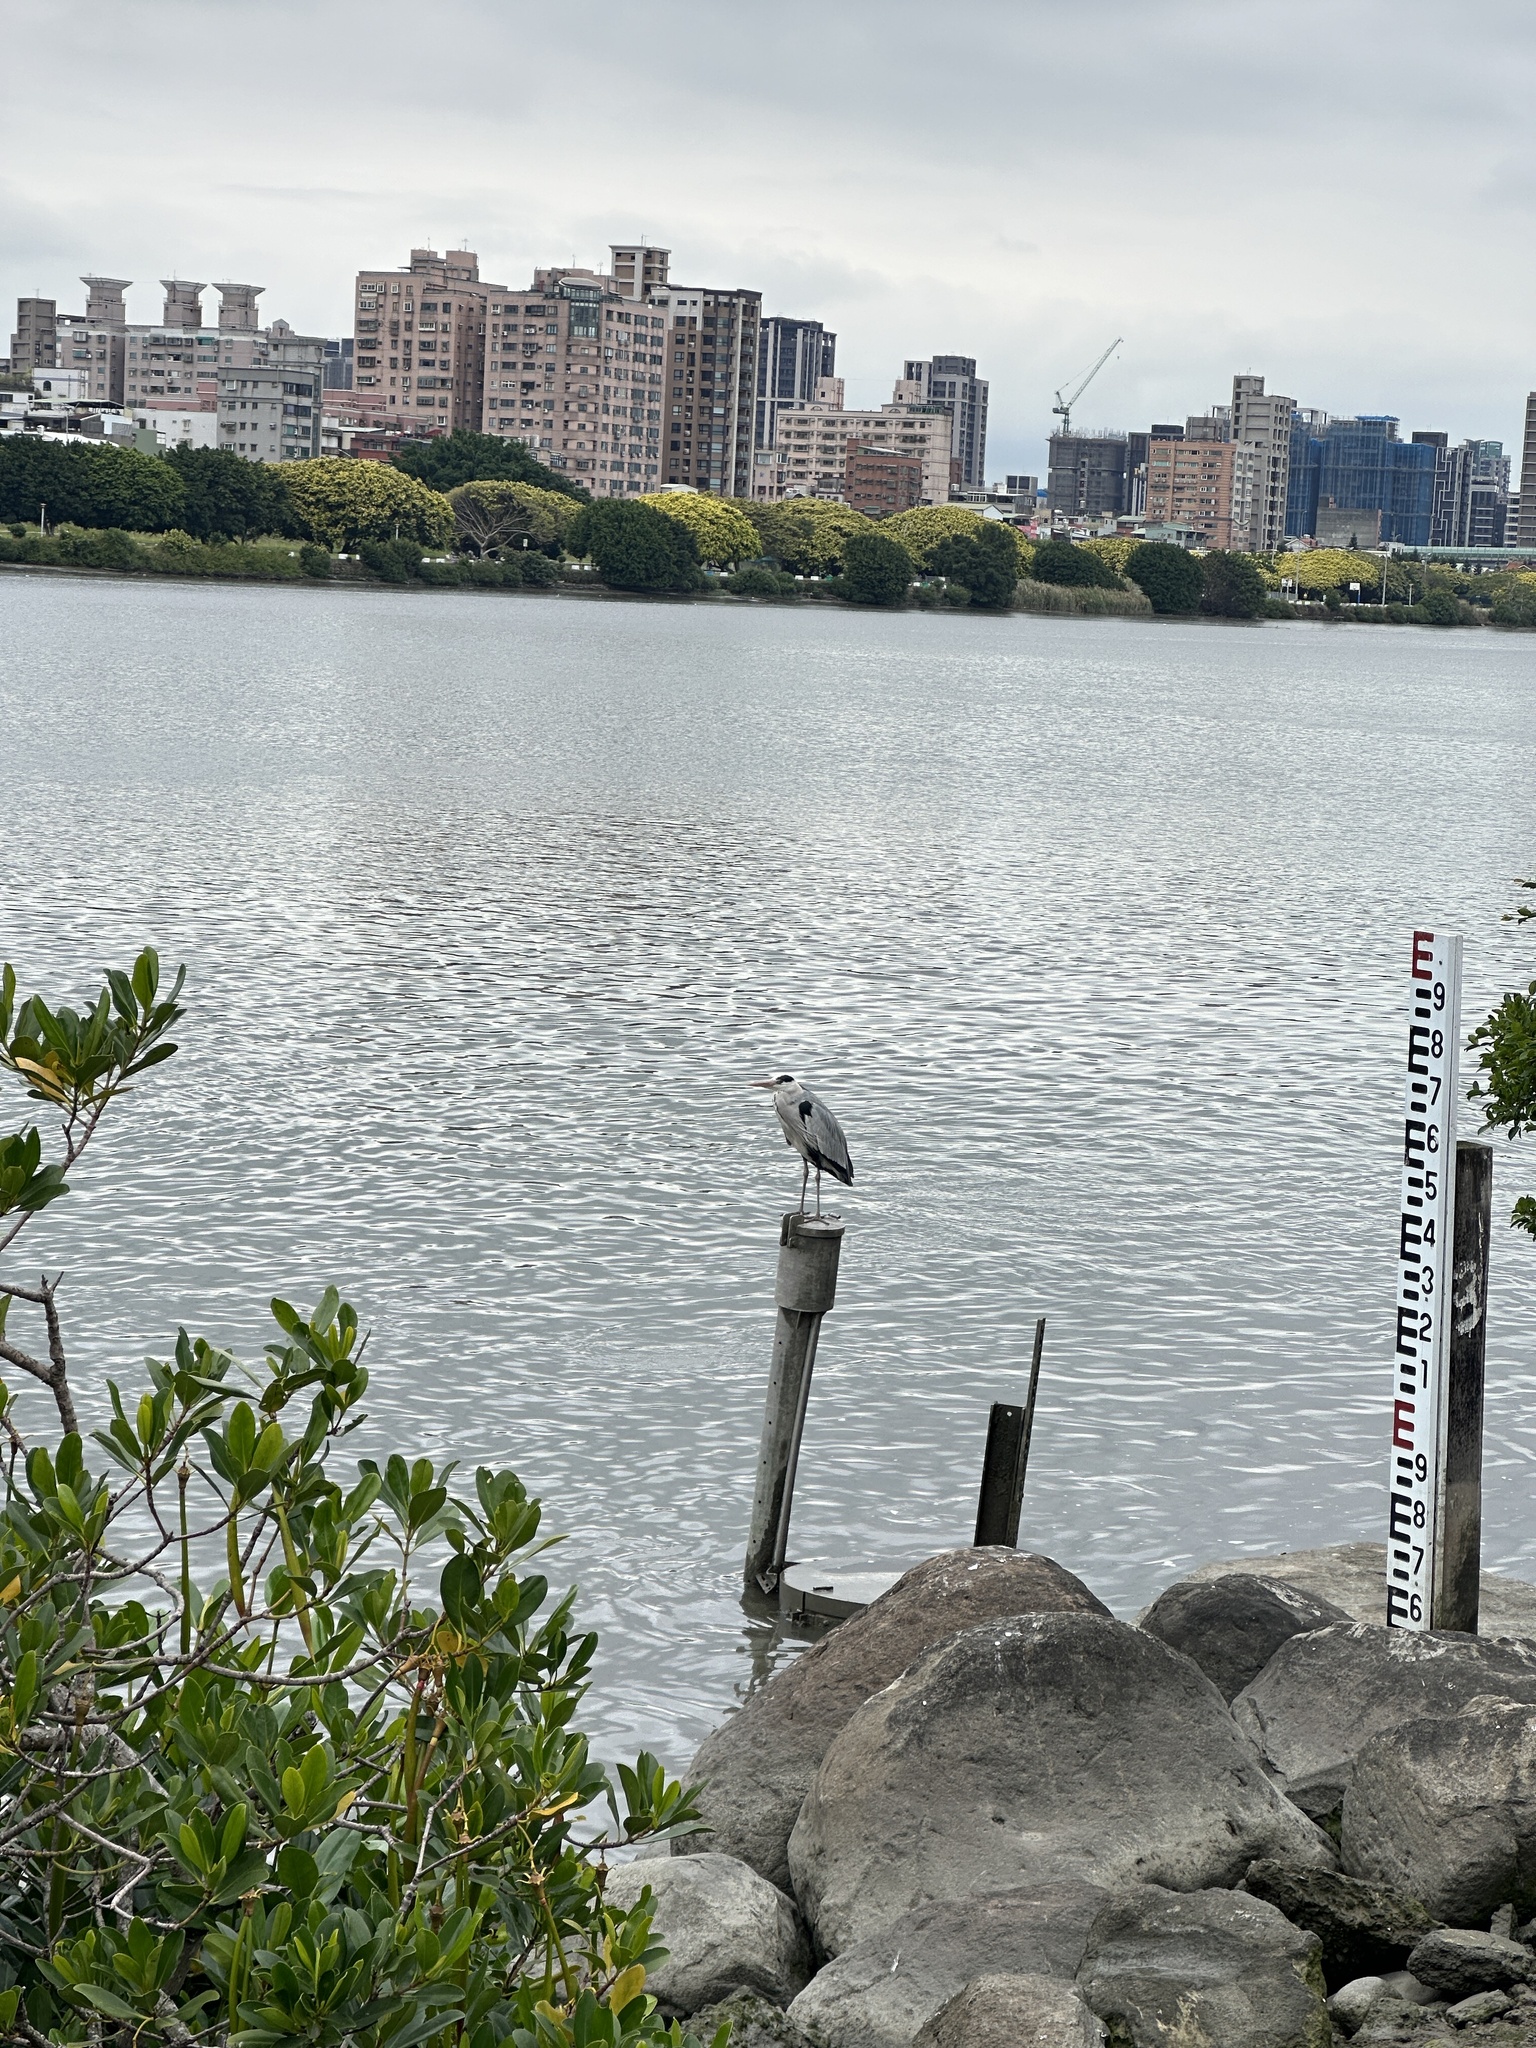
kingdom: Animalia
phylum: Chordata
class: Aves
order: Pelecaniformes
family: Ardeidae
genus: Ardea
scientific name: Ardea cinerea
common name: Grey heron
